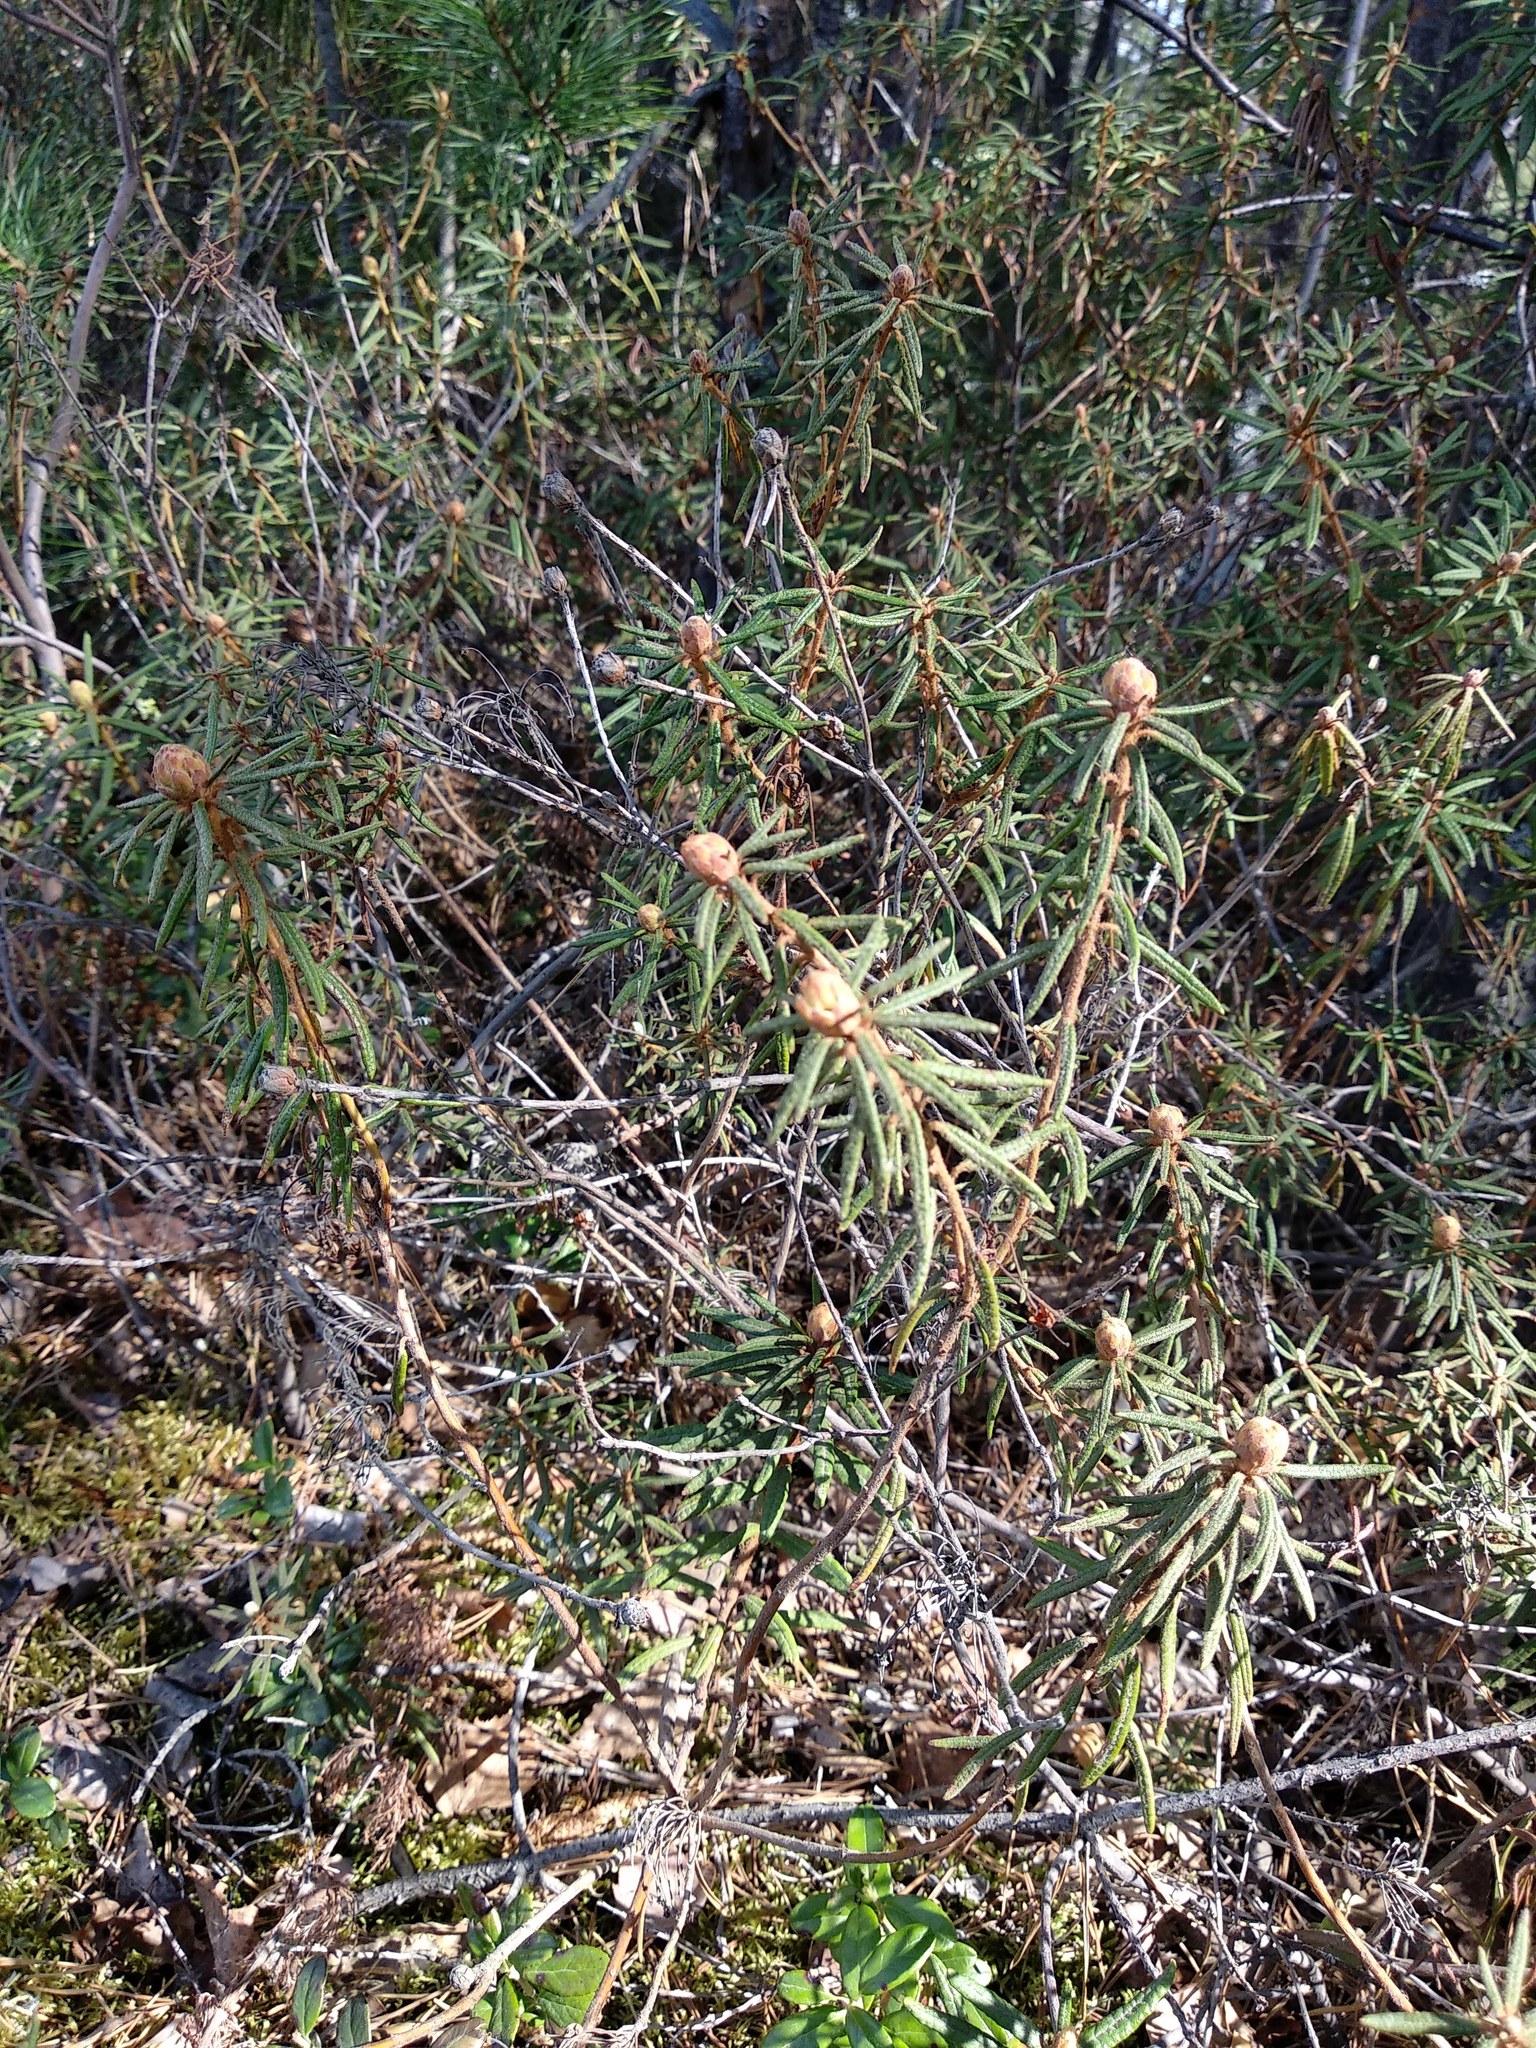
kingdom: Plantae
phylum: Tracheophyta
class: Magnoliopsida
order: Ericales
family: Ericaceae
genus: Rhododendron
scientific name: Rhododendron tomentosum
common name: Marsh labrador tea
